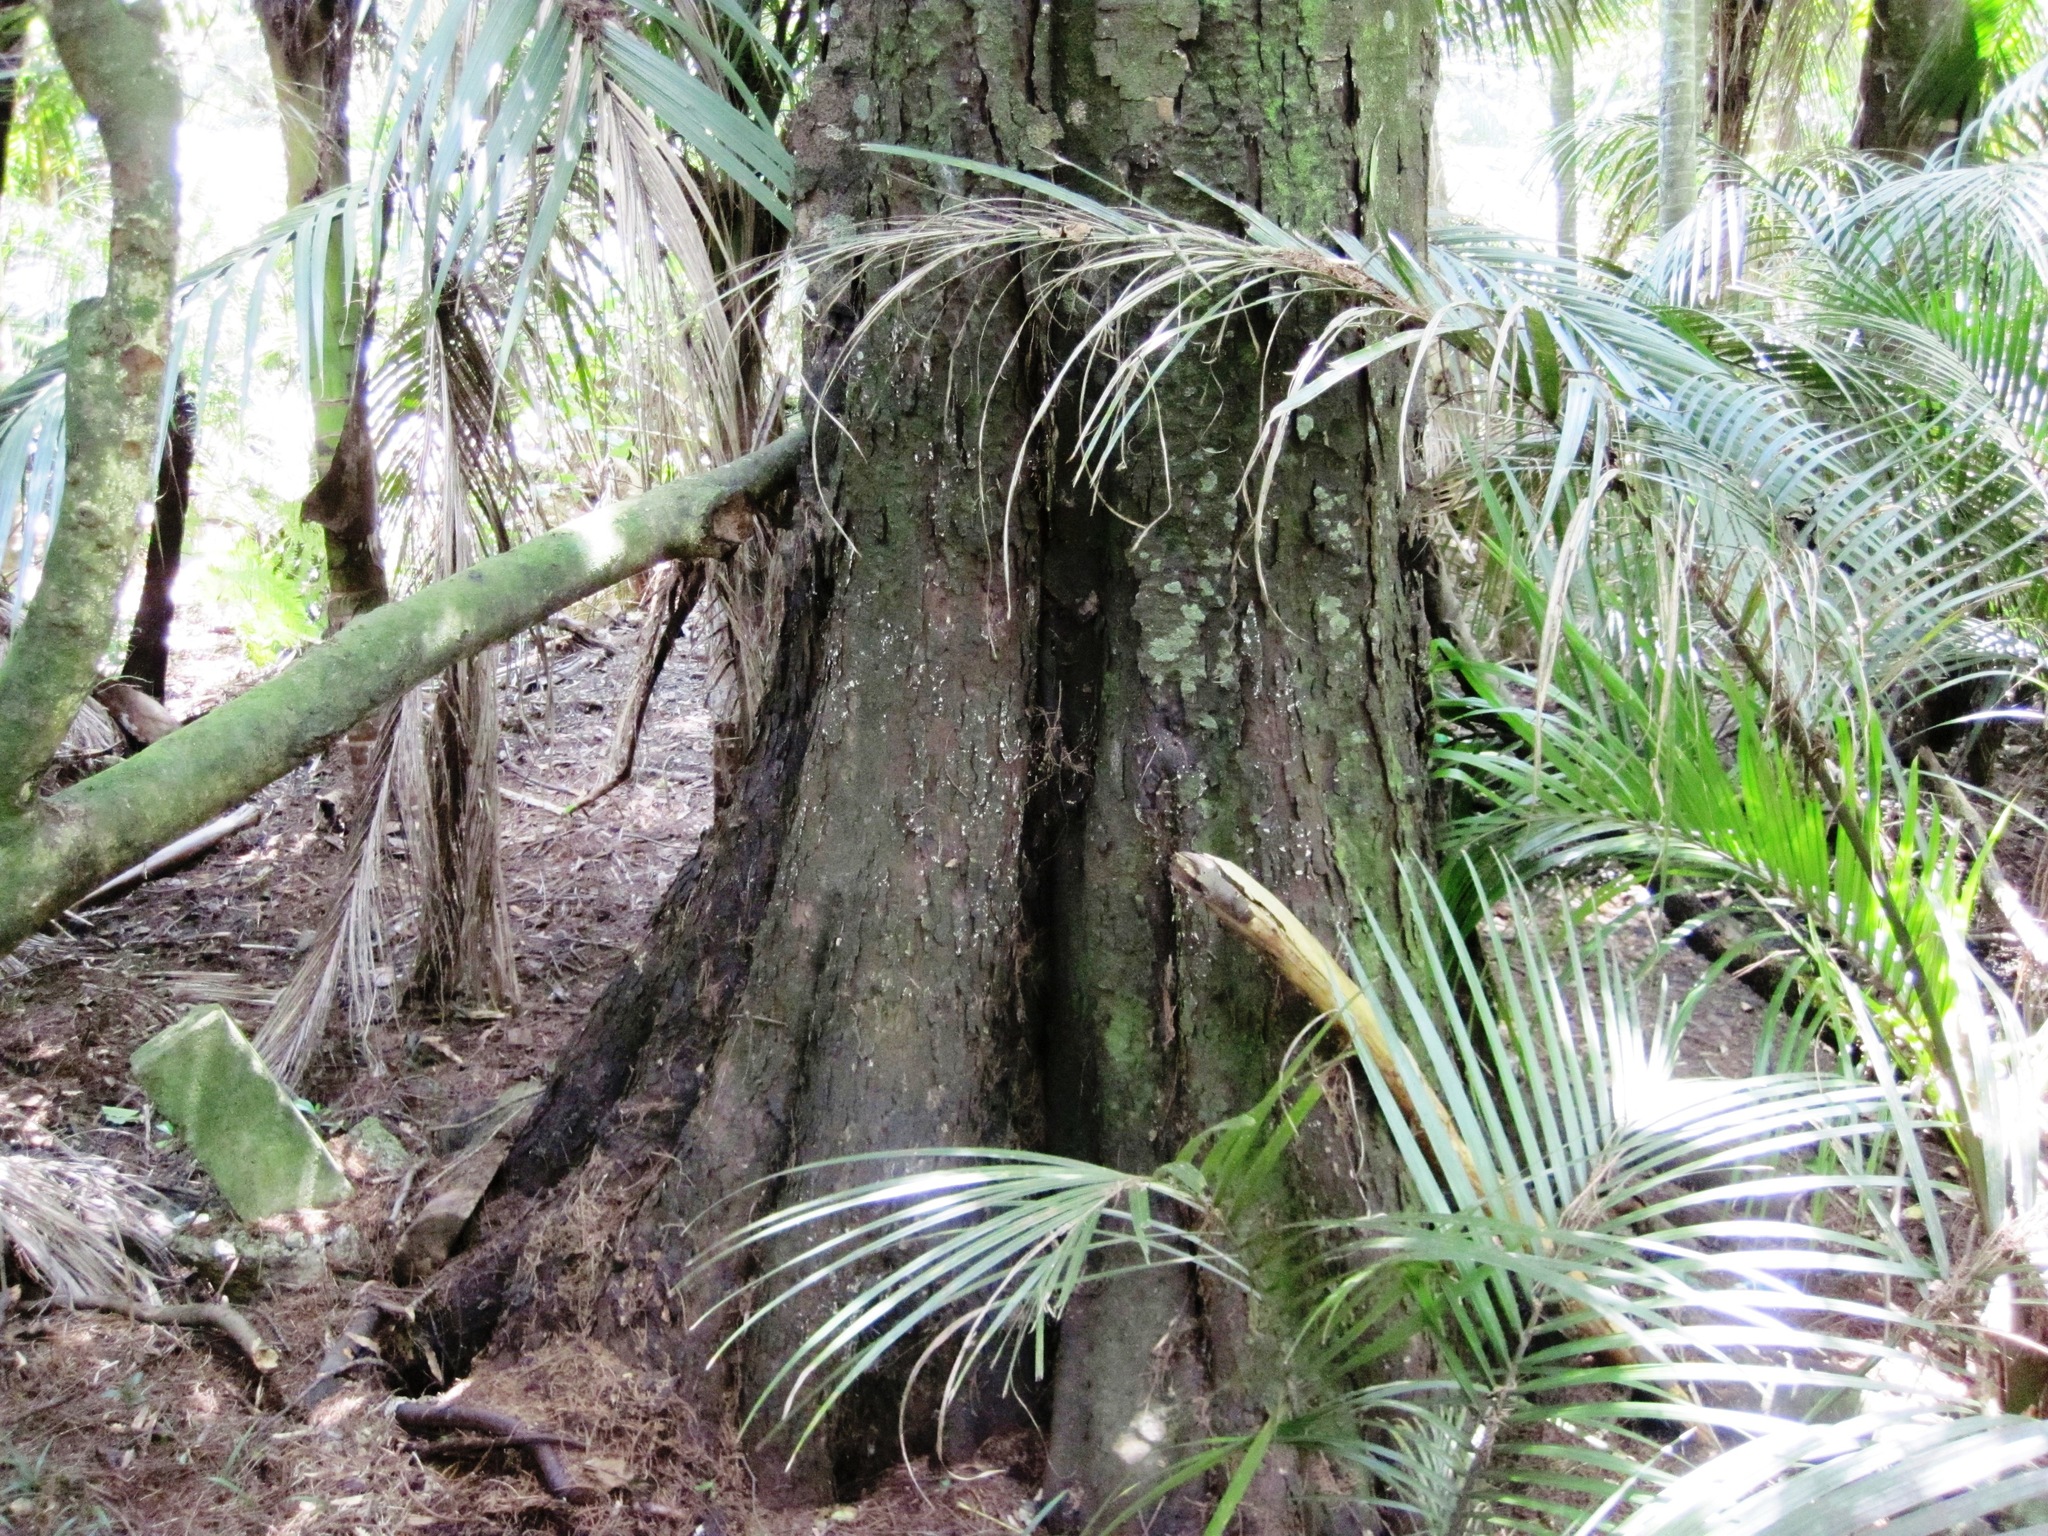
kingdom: Plantae
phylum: Tracheophyta
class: Pinopsida
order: Pinales
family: Podocarpaceae
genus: Dacrycarpus
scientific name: Dacrycarpus dacrydioides
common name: White pine
